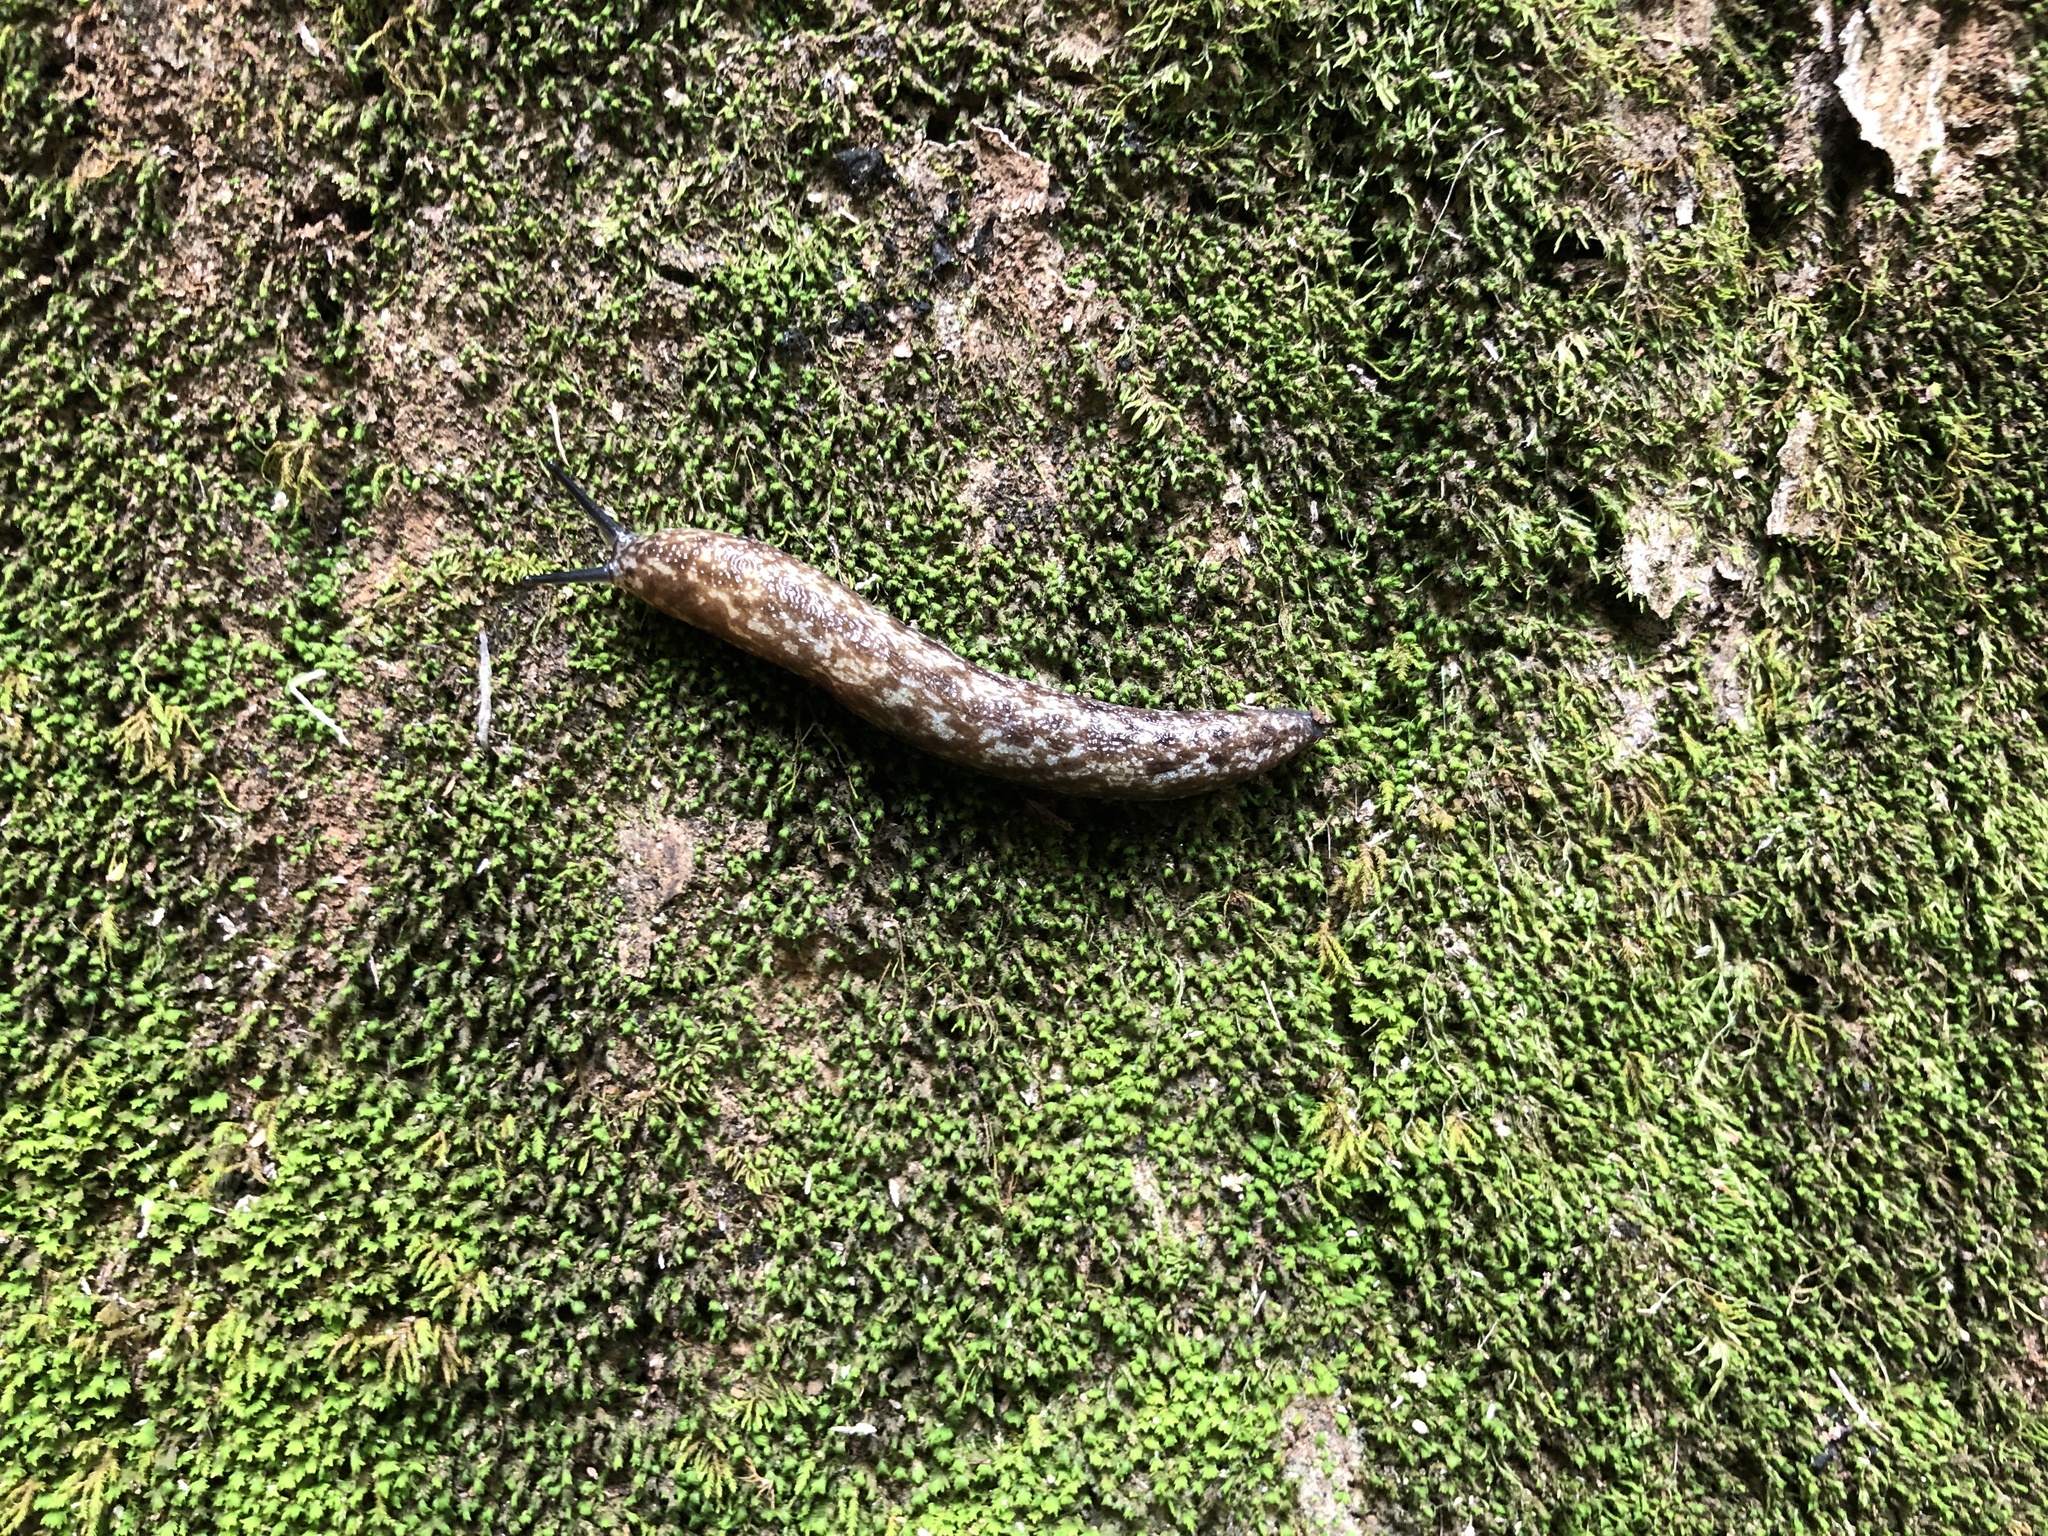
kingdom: Animalia
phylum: Mollusca
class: Gastropoda
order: Stylommatophora
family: Philomycidae
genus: Philomycus
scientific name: Philomycus flexuolaris
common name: Winding mantleslug
